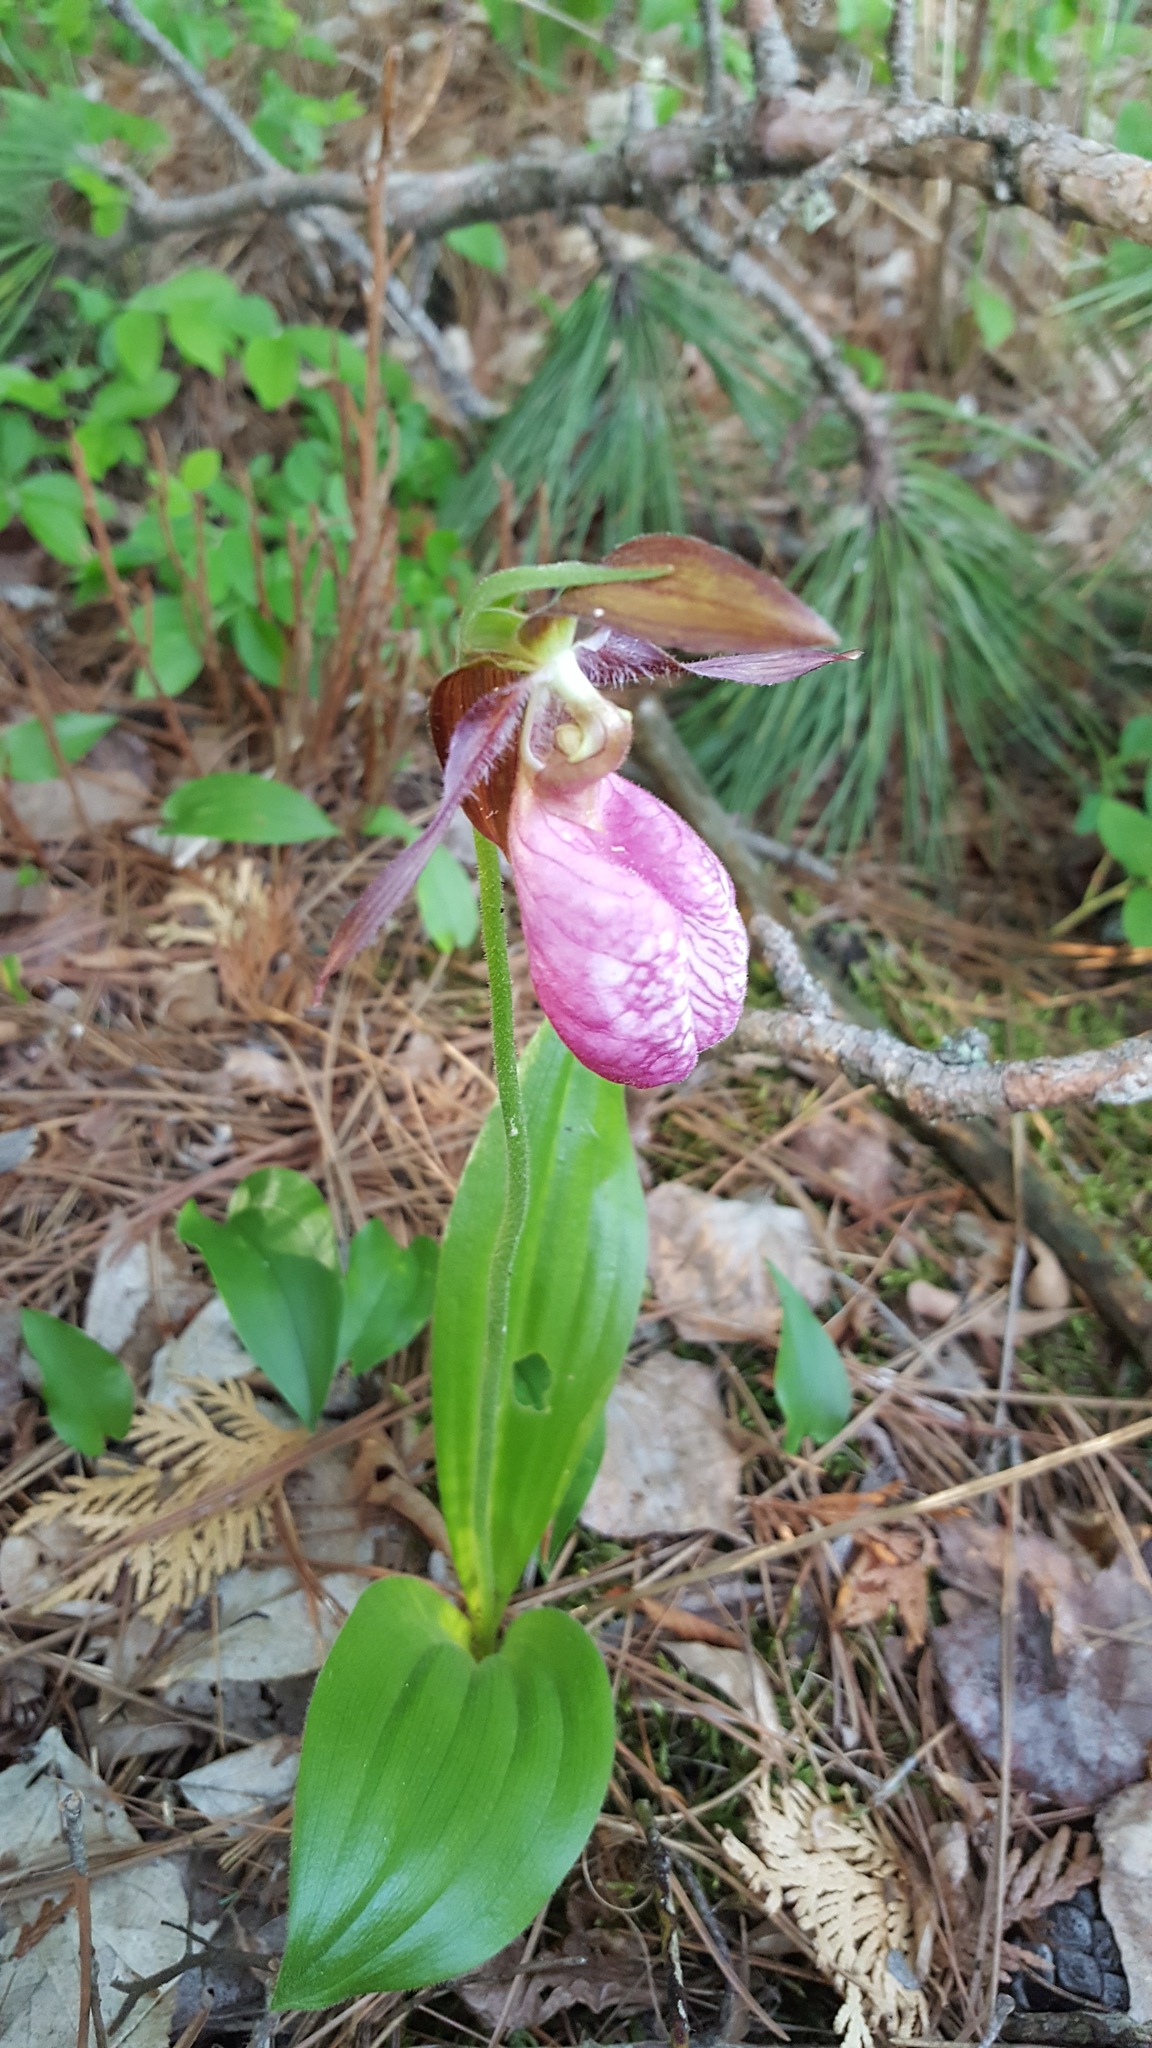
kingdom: Plantae
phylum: Tracheophyta
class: Liliopsida
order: Asparagales
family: Orchidaceae
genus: Cypripedium
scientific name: Cypripedium acaule
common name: Pink lady's-slipper
